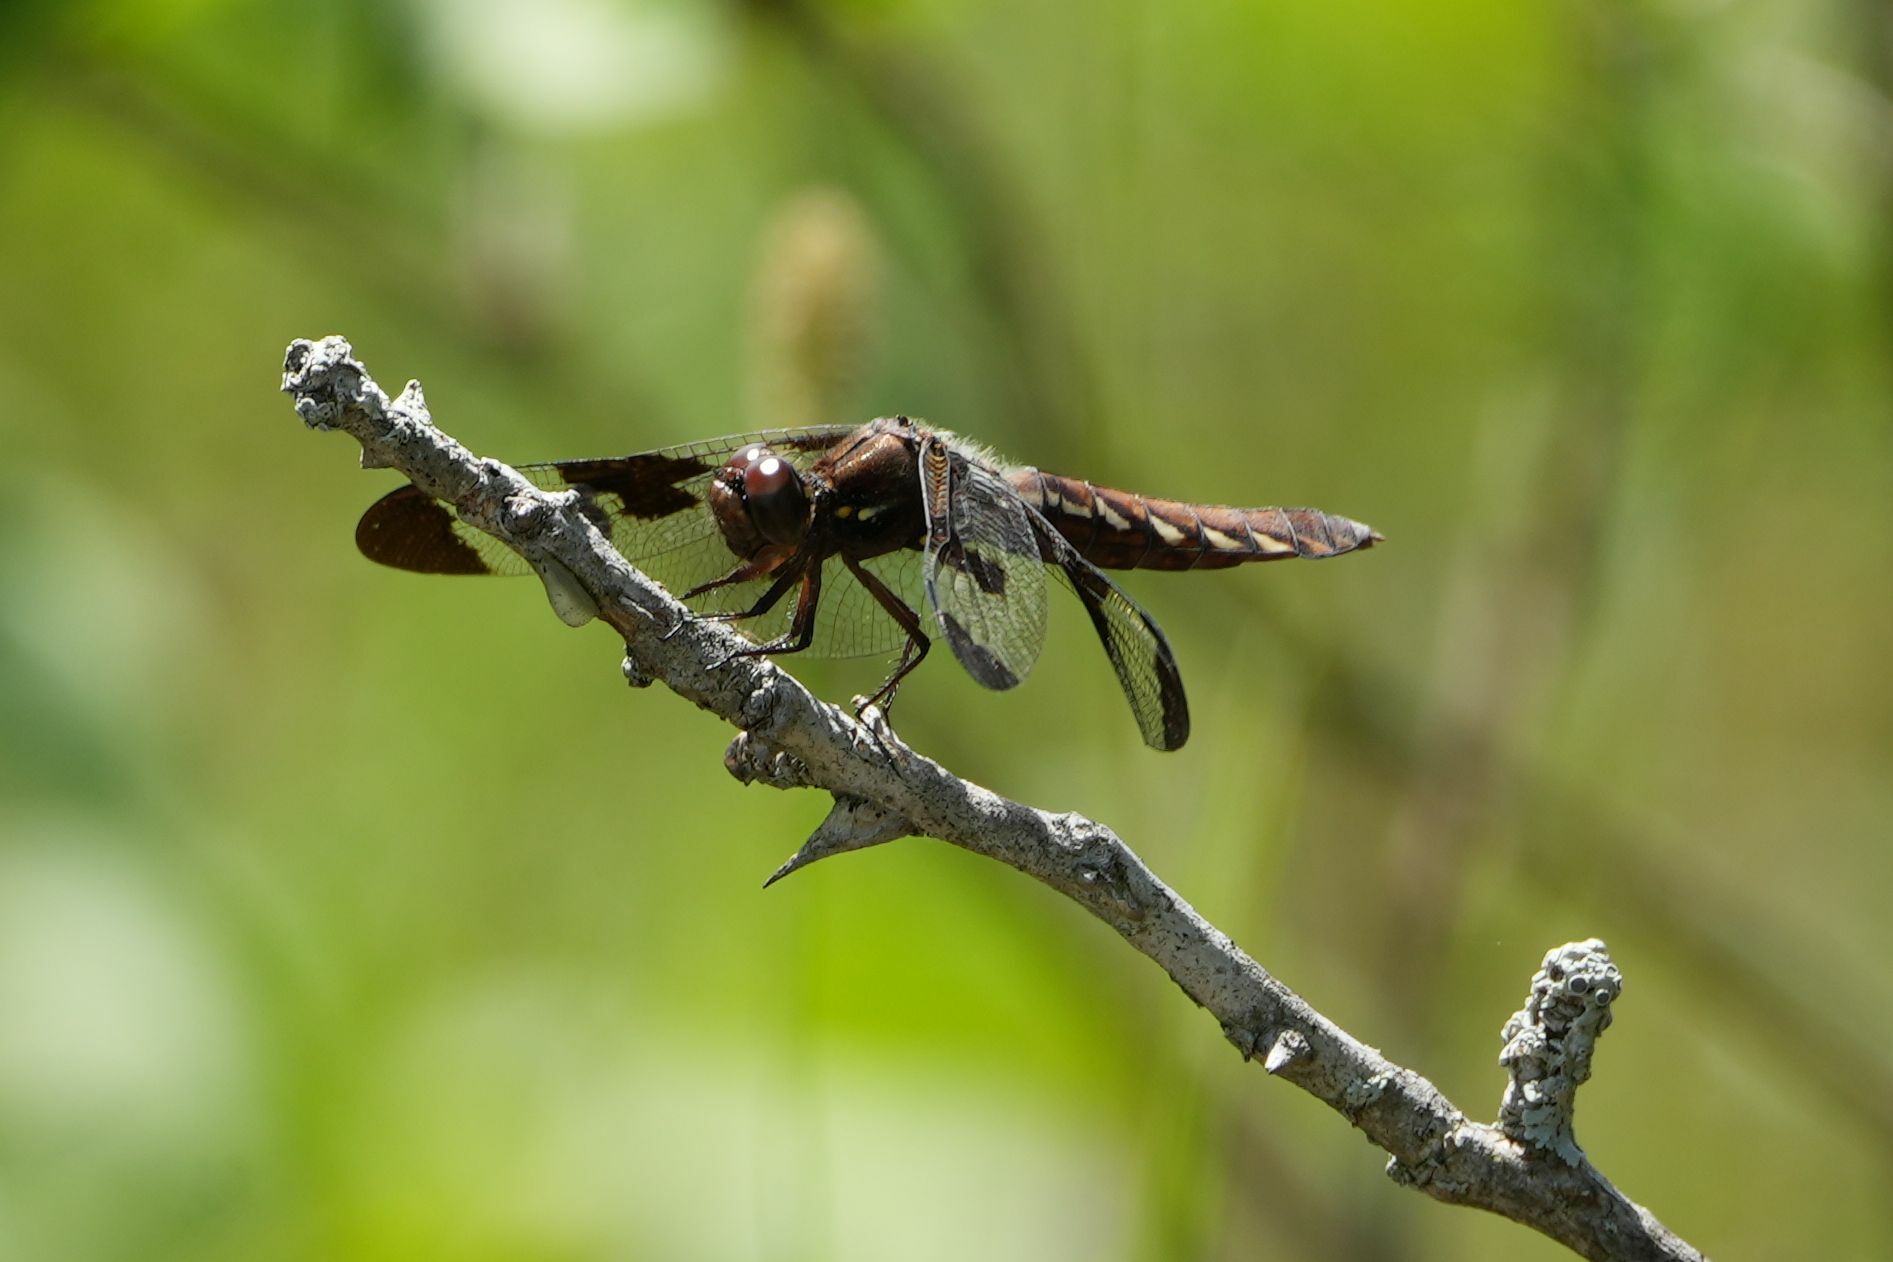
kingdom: Animalia
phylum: Arthropoda
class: Insecta
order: Odonata
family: Libellulidae
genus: Plathemis
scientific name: Plathemis lydia
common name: Common whitetail
